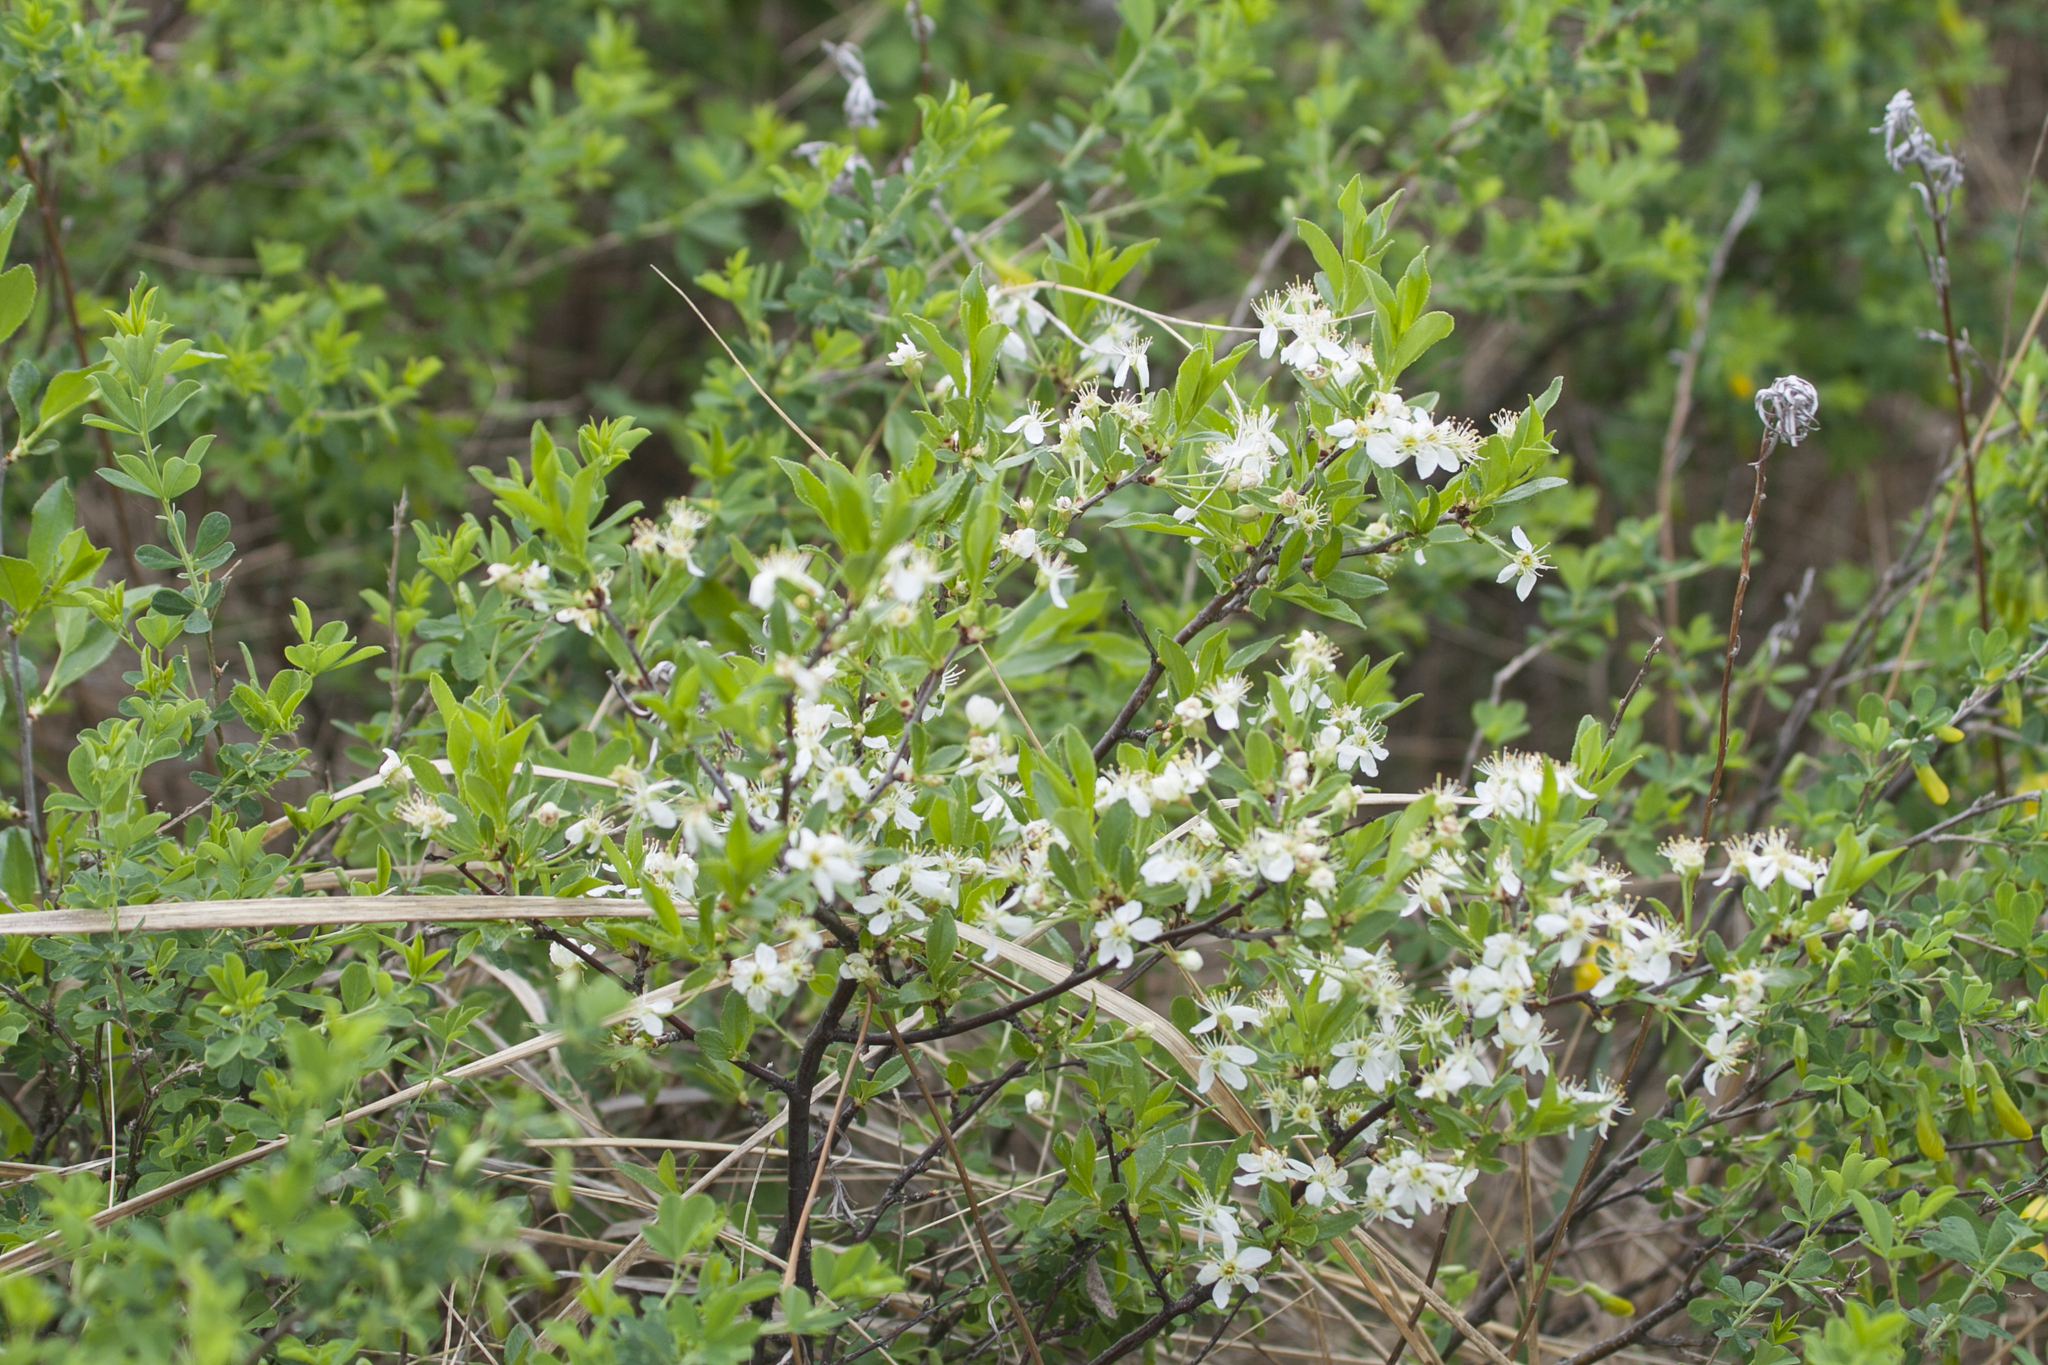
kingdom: Plantae
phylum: Tracheophyta
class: Magnoliopsida
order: Rosales
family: Rosaceae
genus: Prunus
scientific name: Prunus fruticosa
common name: European dwarf cherry
